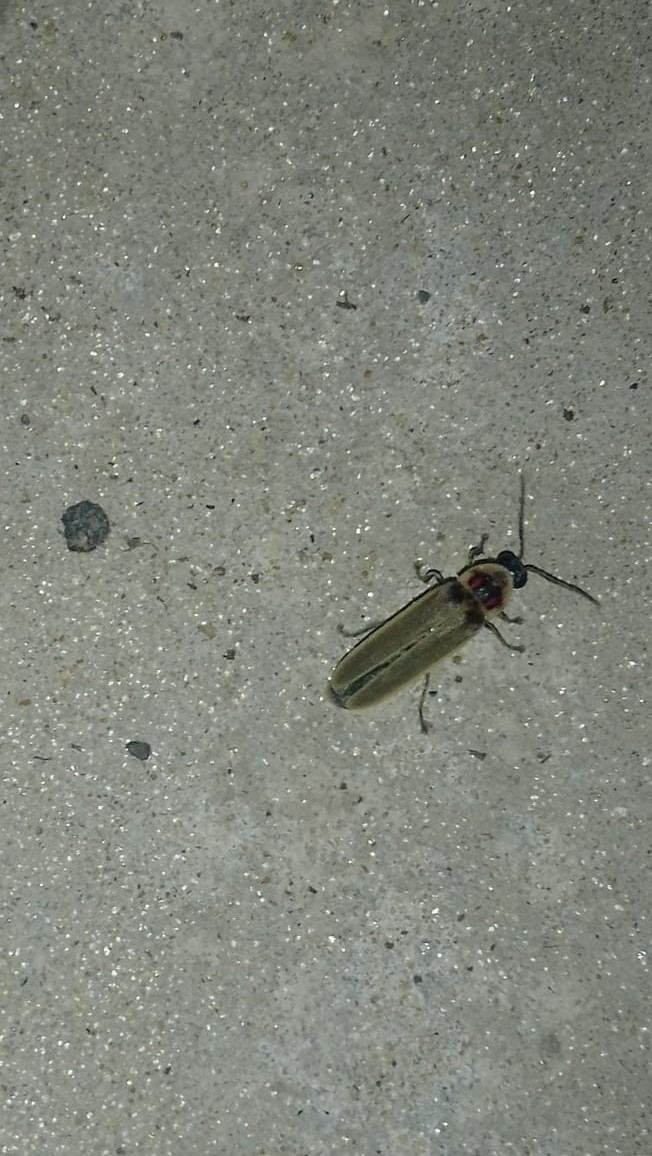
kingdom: Animalia
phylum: Arthropoda
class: Insecta
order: Coleoptera
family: Lampyridae
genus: Photinus
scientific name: Photinus signaticollis
